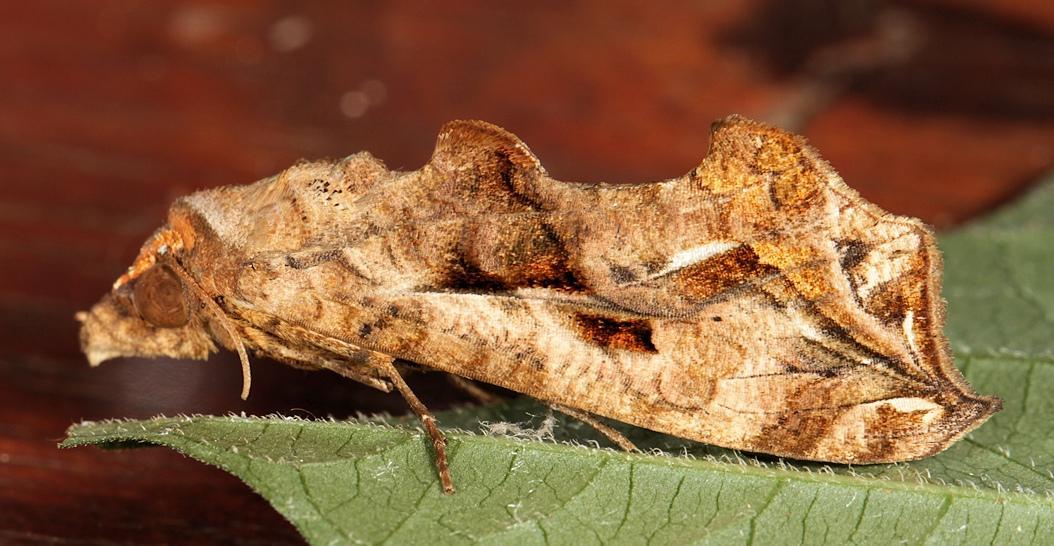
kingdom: Animalia
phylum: Arthropoda
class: Insecta
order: Lepidoptera
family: Erebidae
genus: Oraesia
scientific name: Oraesia provocans
